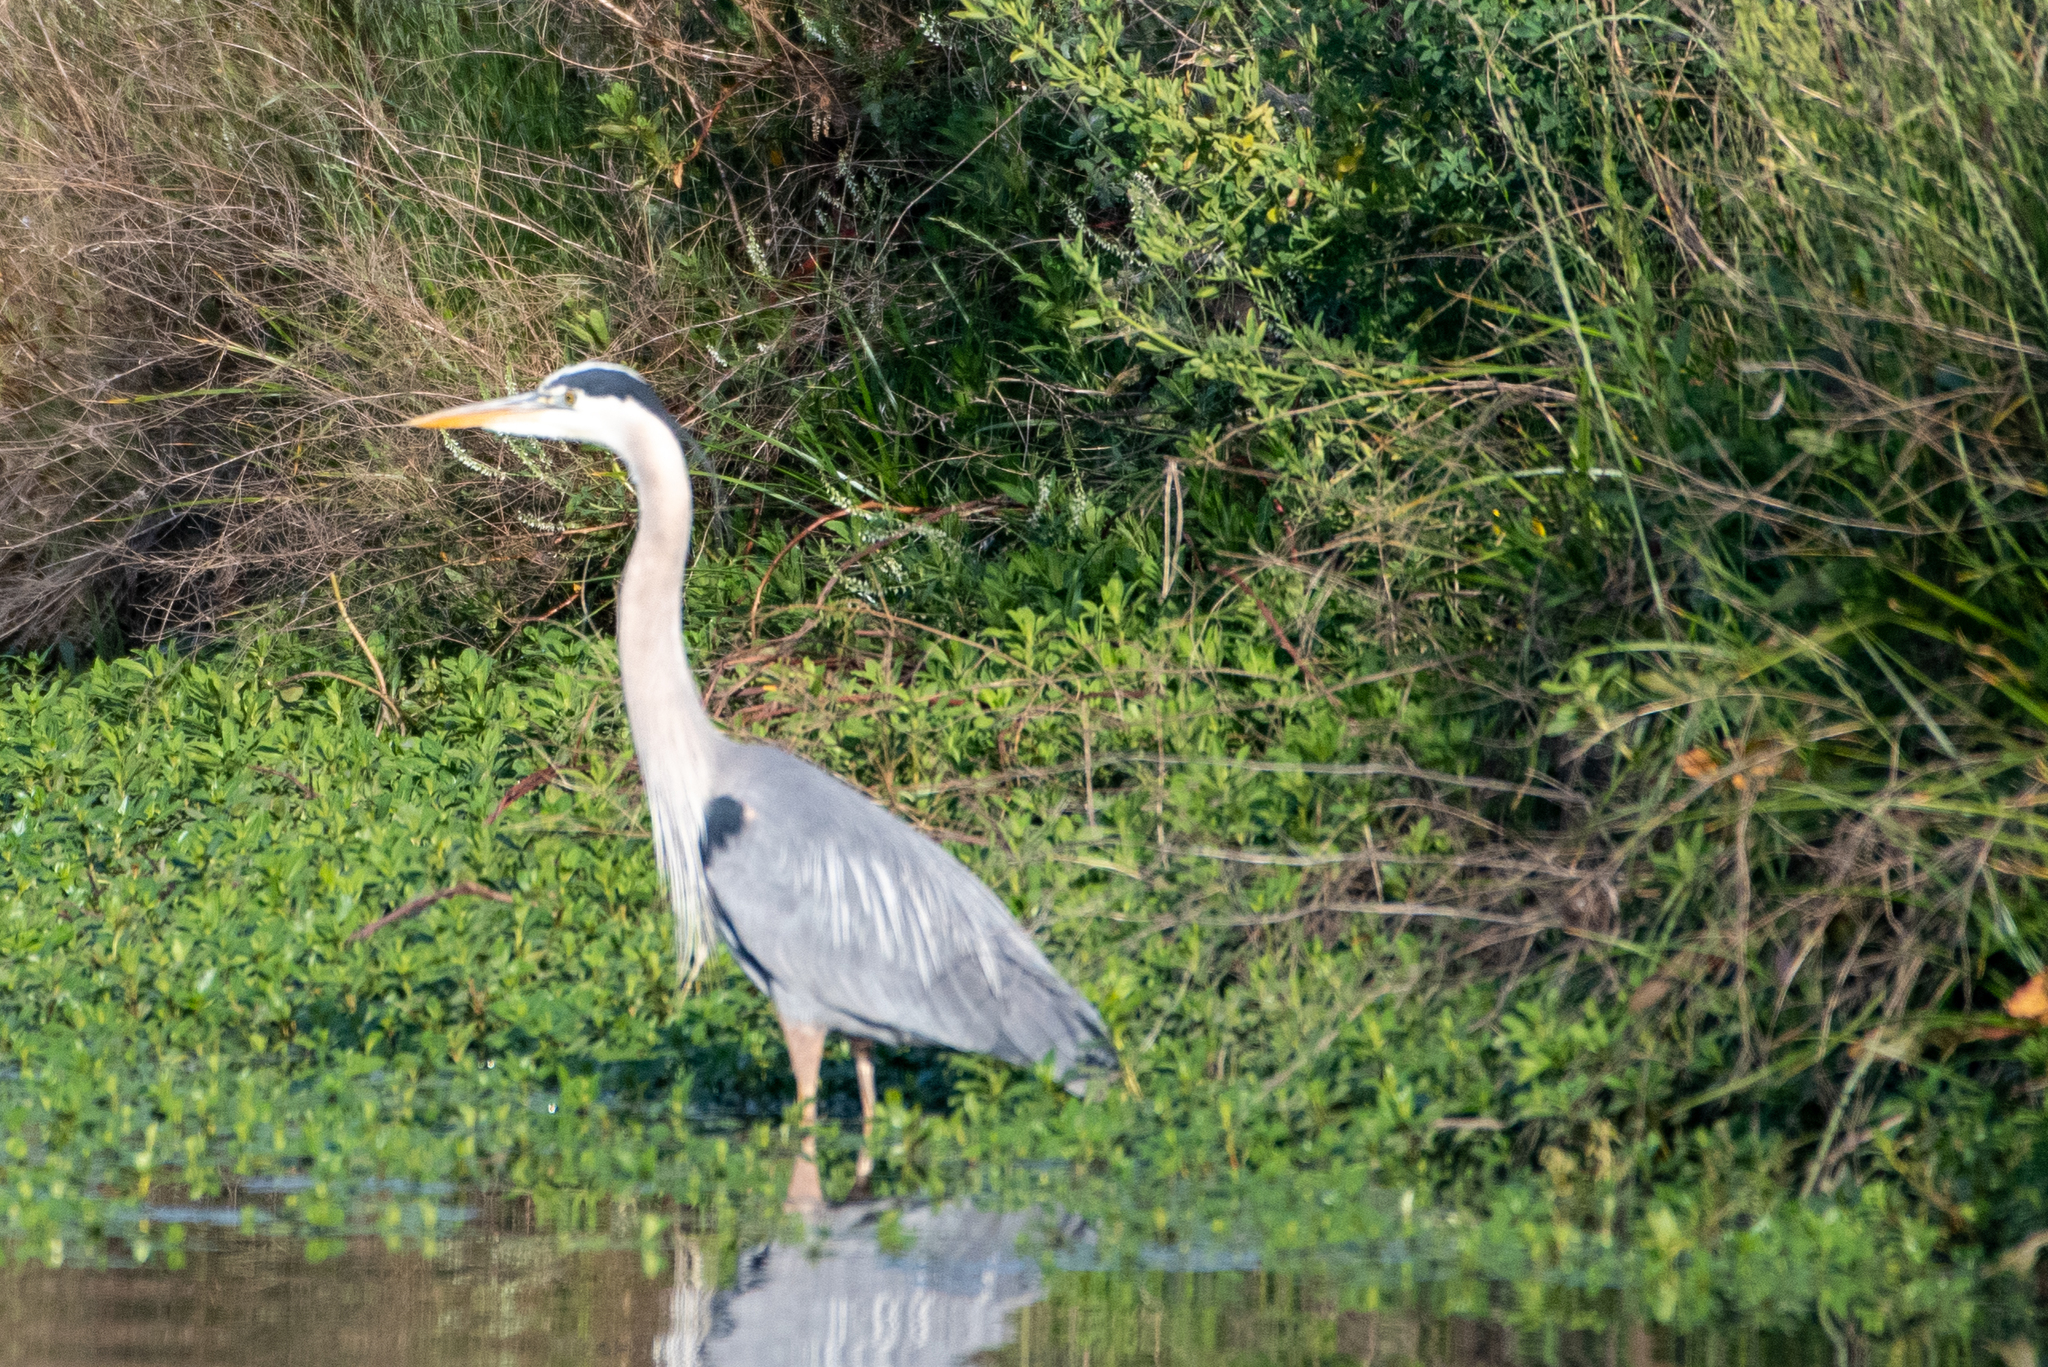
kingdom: Animalia
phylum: Chordata
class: Aves
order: Pelecaniformes
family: Ardeidae
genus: Ardea
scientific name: Ardea herodias
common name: Great blue heron
